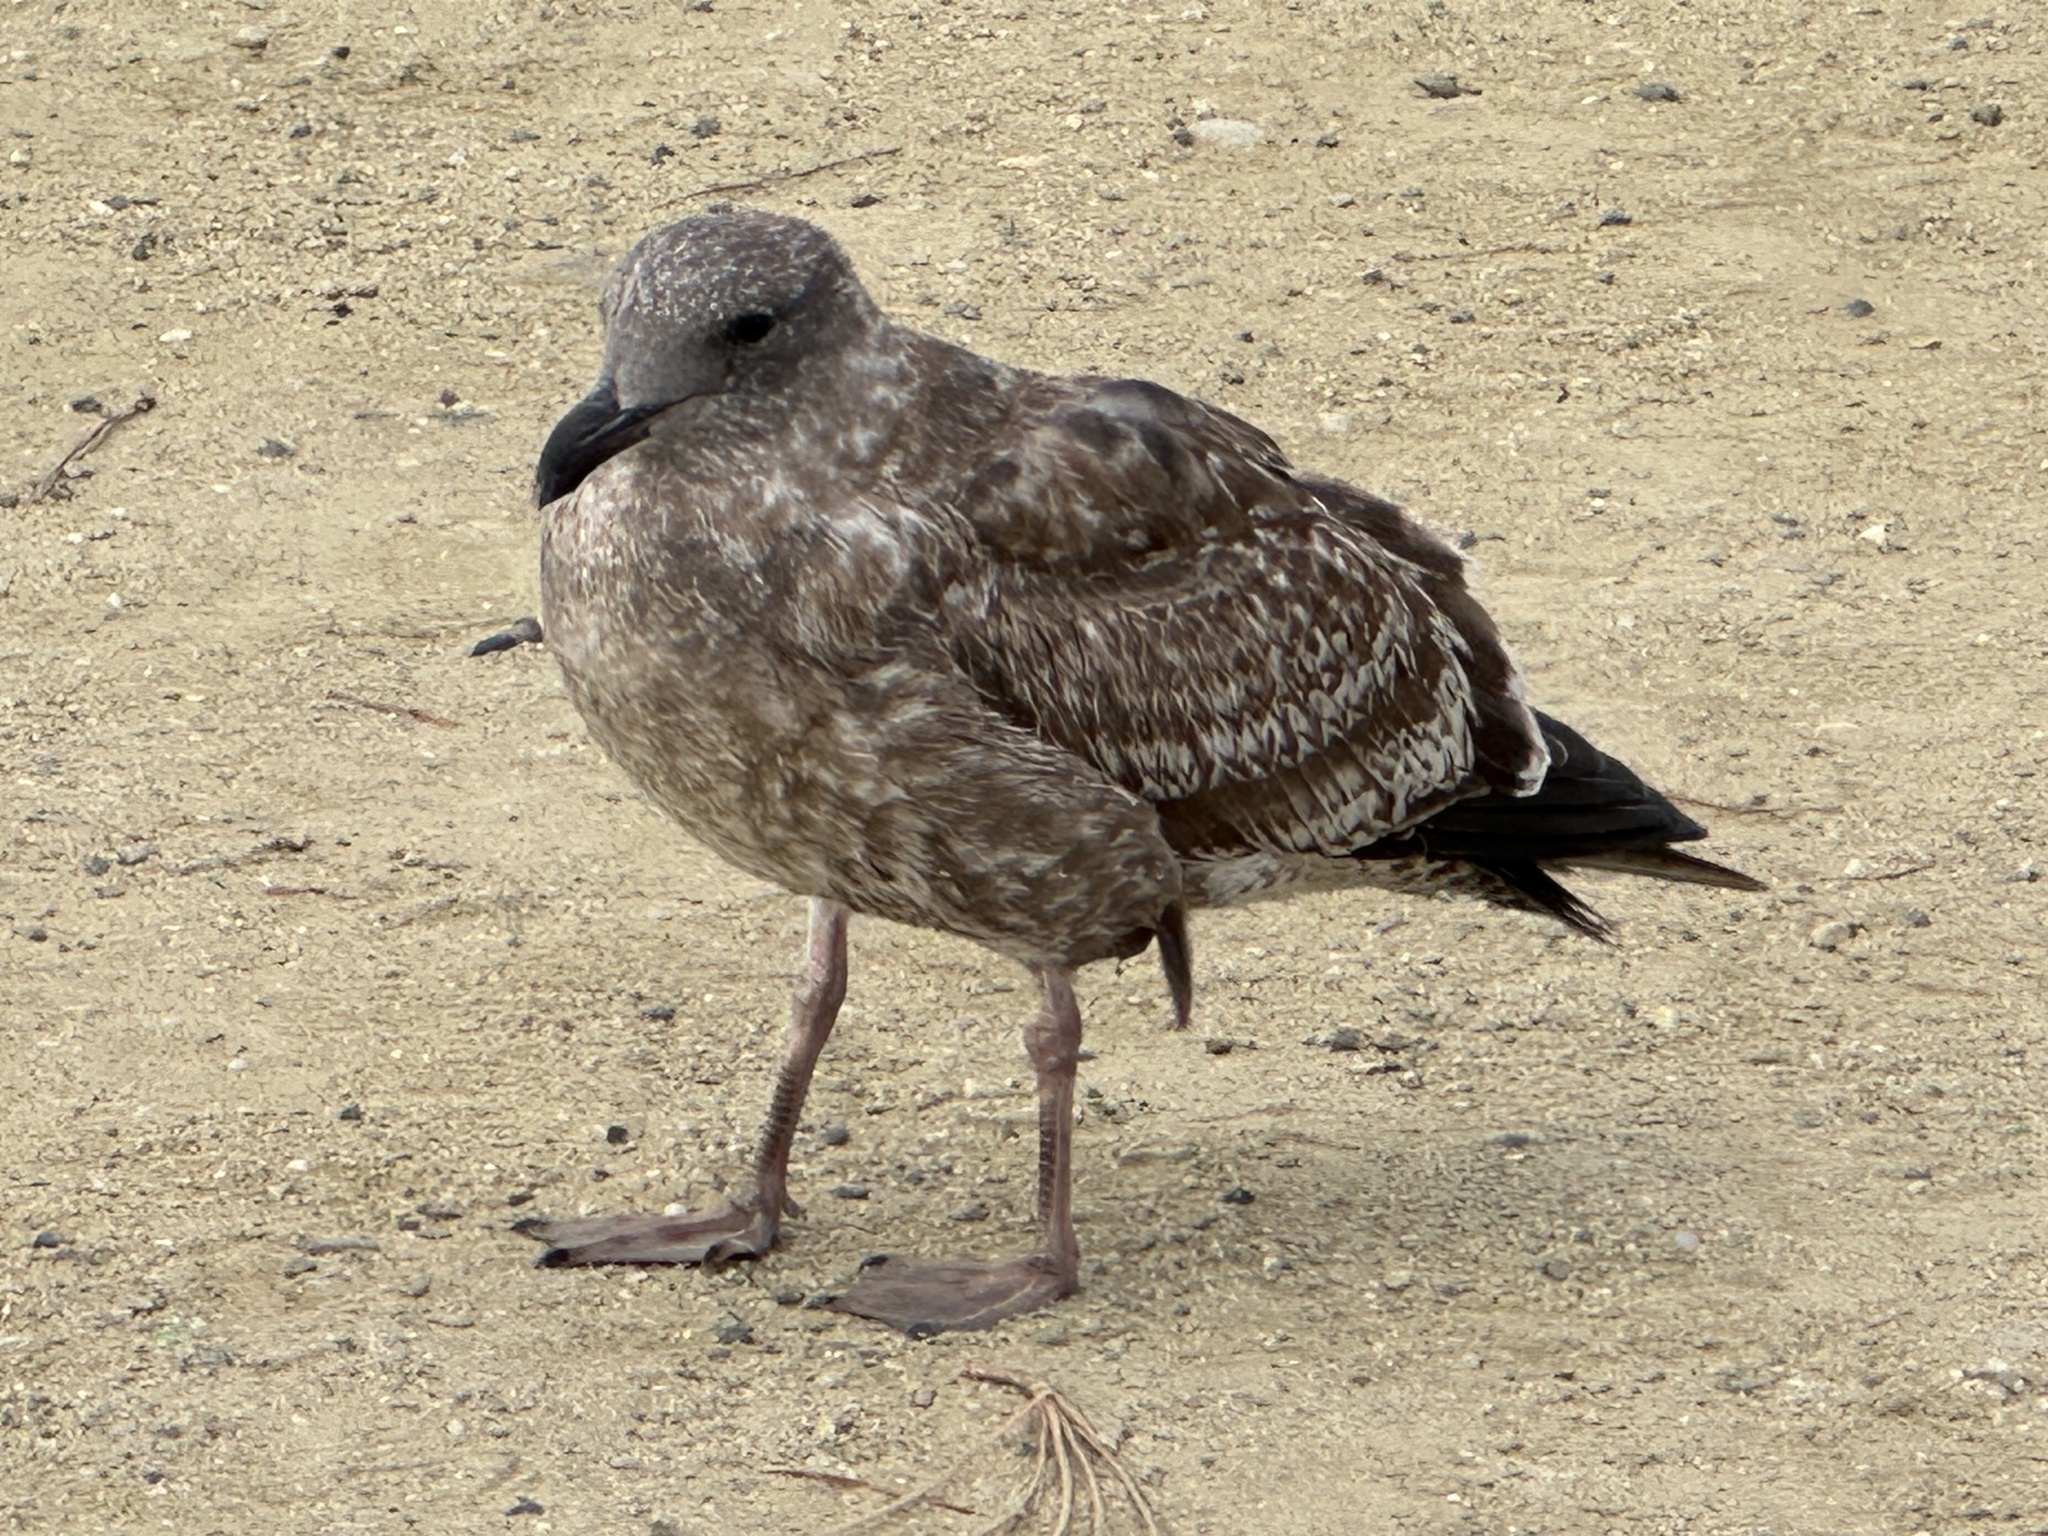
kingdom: Animalia
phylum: Chordata
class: Aves
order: Charadriiformes
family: Laridae
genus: Larus
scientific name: Larus occidentalis
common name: Western gull
